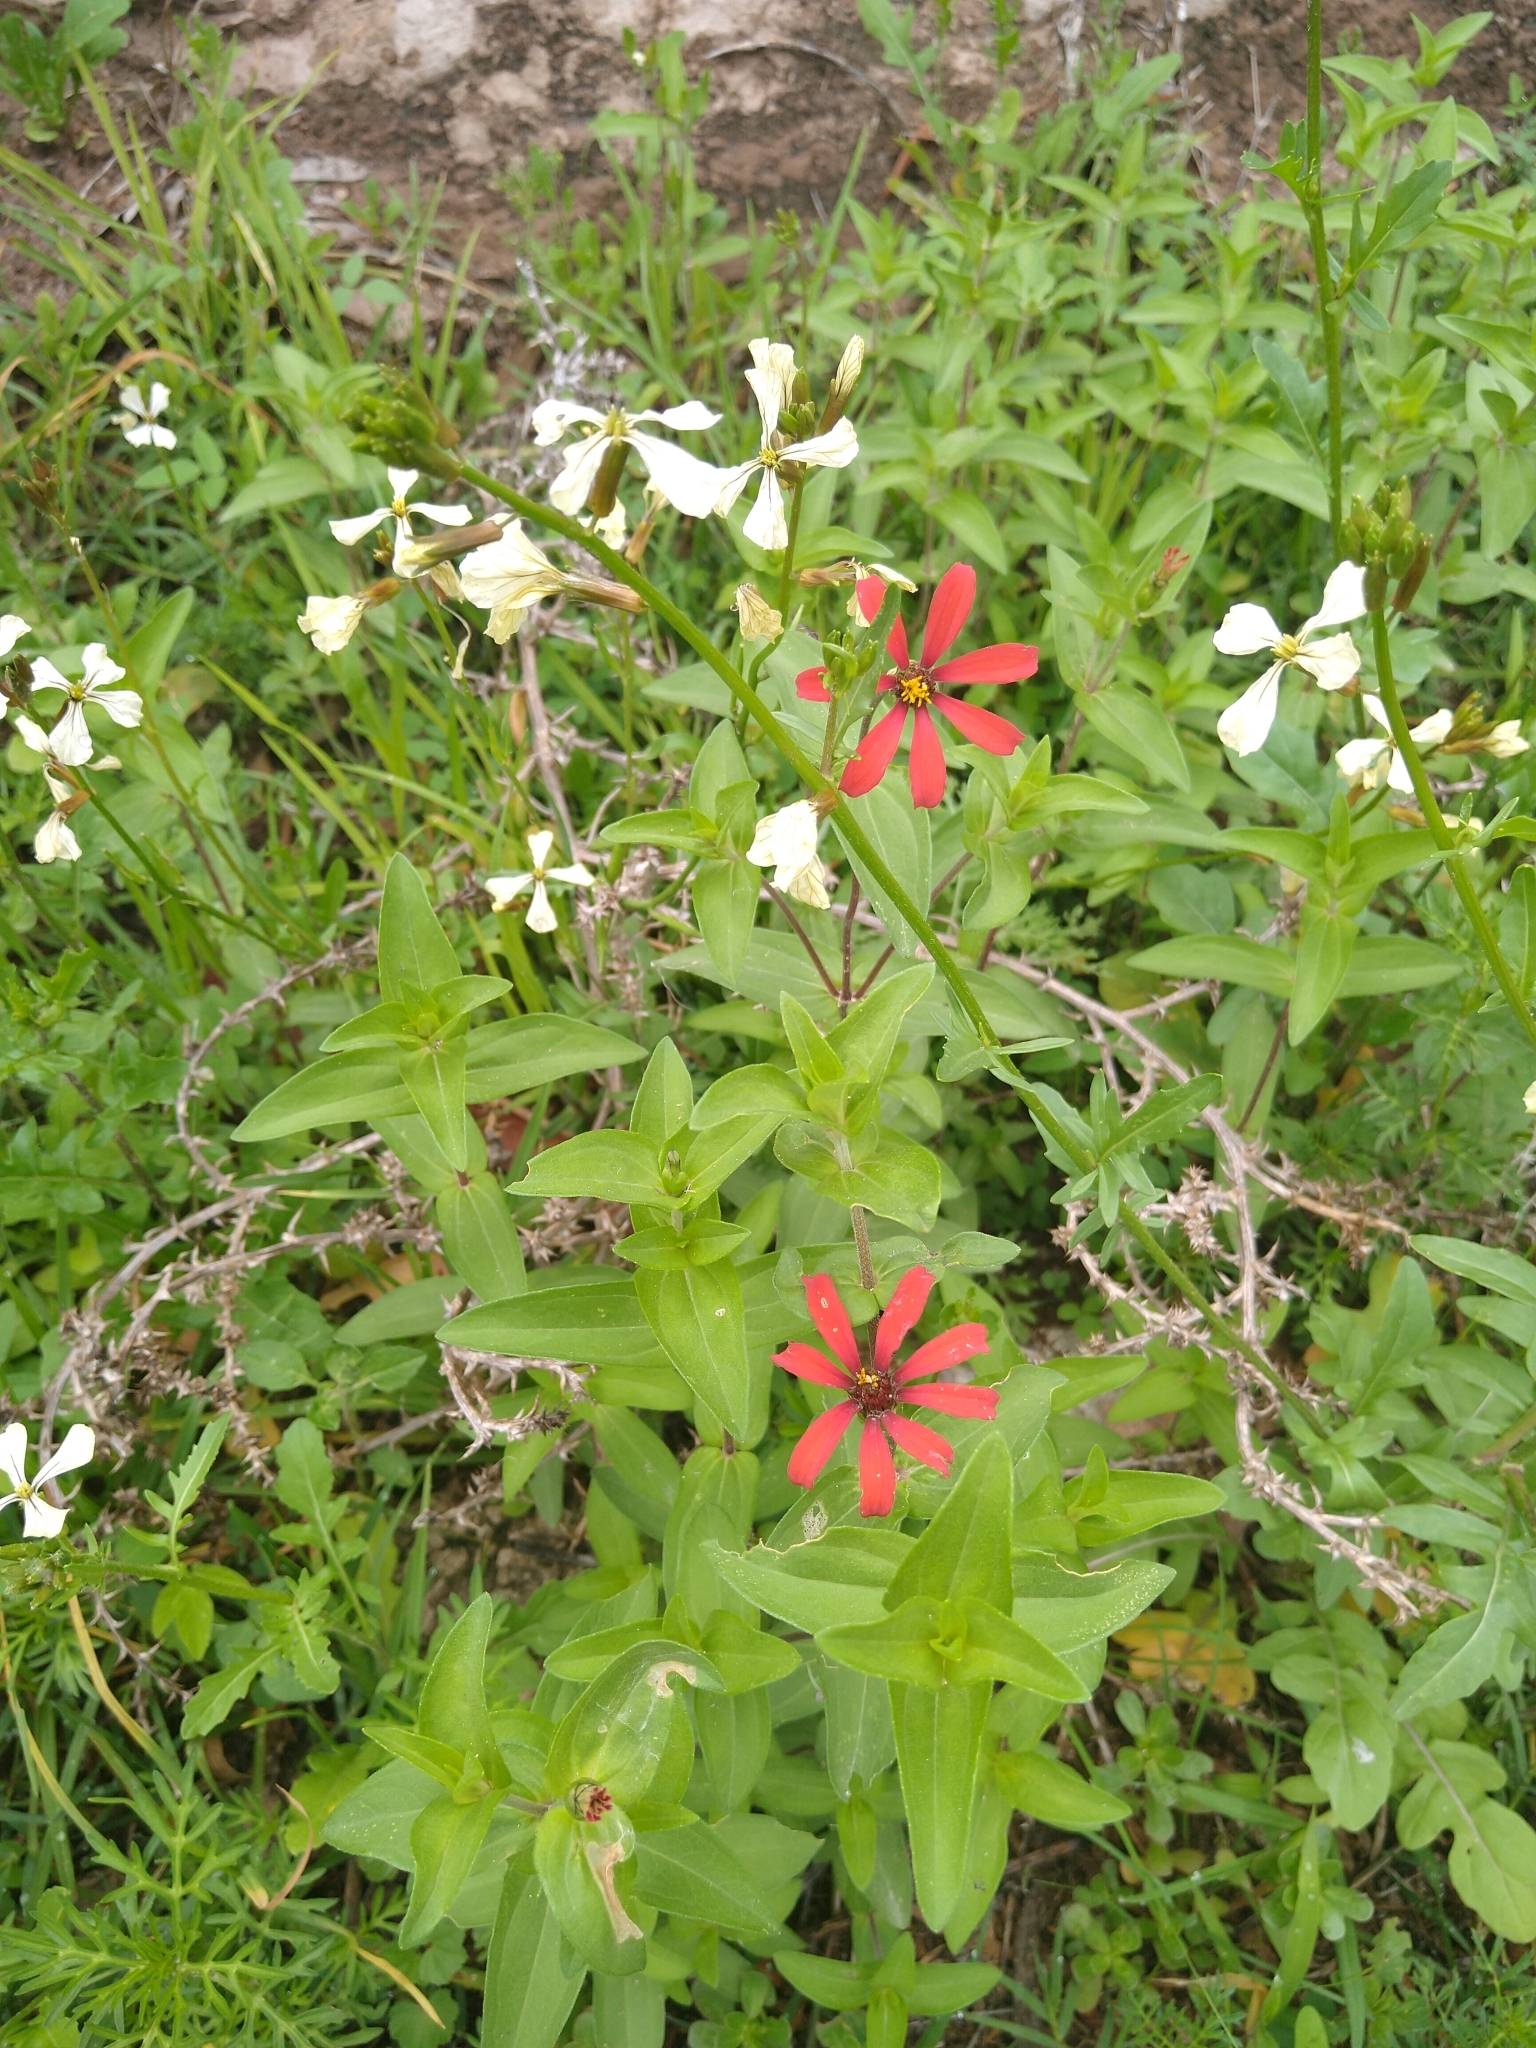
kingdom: Plantae
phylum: Tracheophyta
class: Magnoliopsida
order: Asterales
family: Asteraceae
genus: Zinnia
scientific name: Zinnia peruviana
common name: Peruvian zinnia
